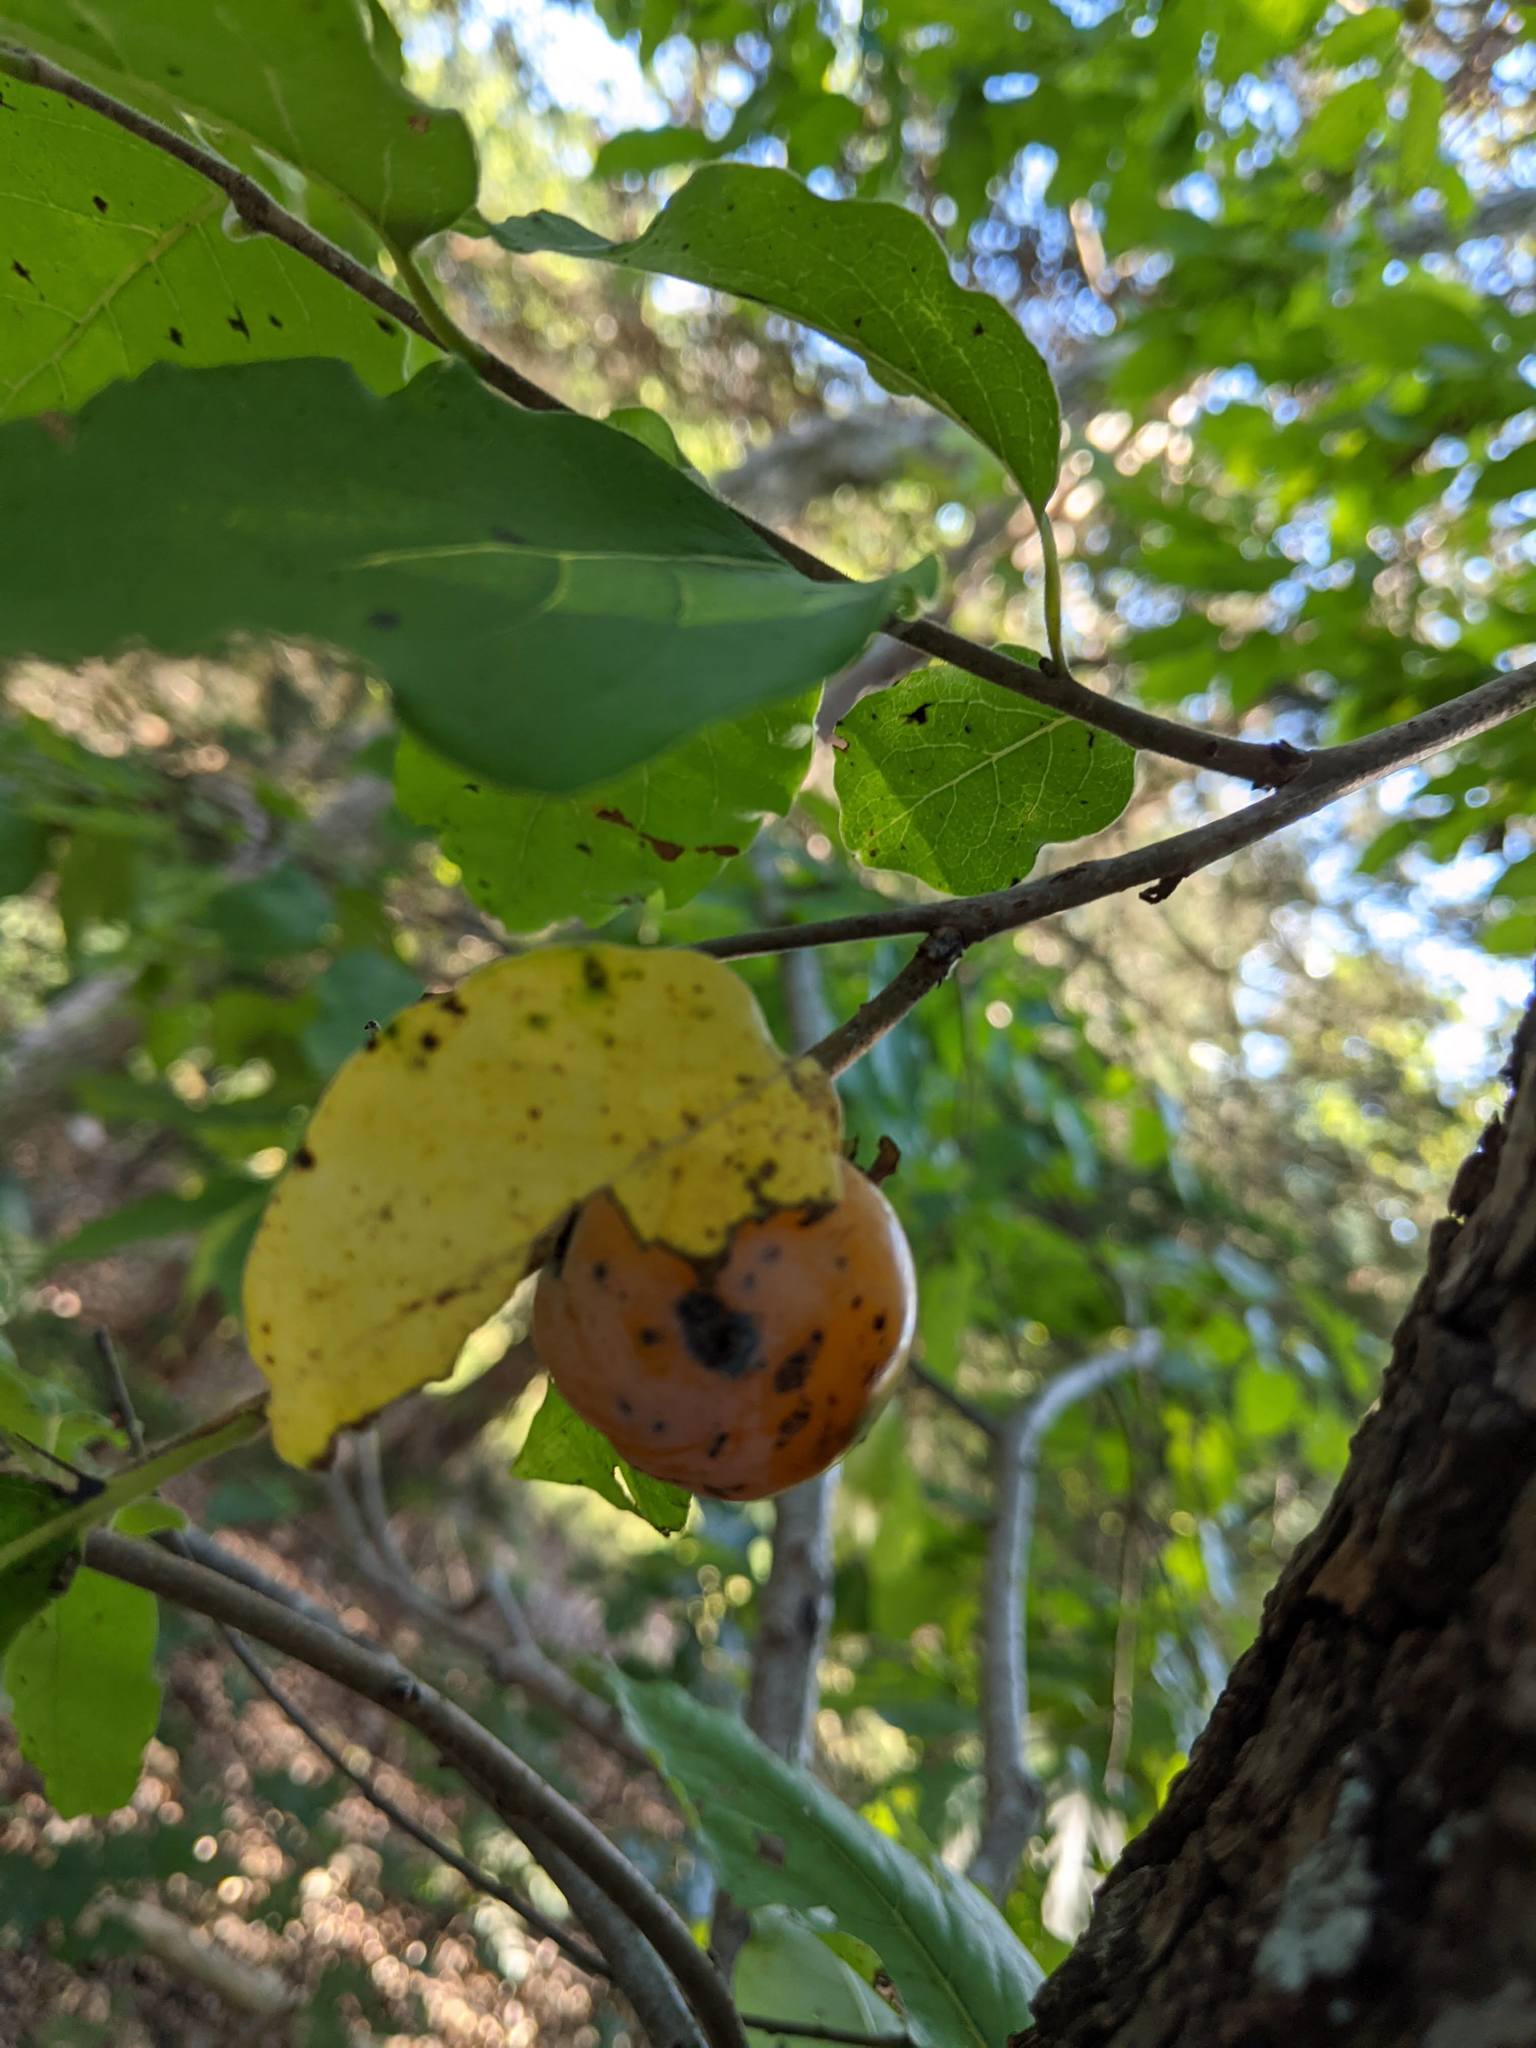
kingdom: Plantae
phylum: Tracheophyta
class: Magnoliopsida
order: Ericales
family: Ebenaceae
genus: Diospyros
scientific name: Diospyros virginiana
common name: Persimmon
